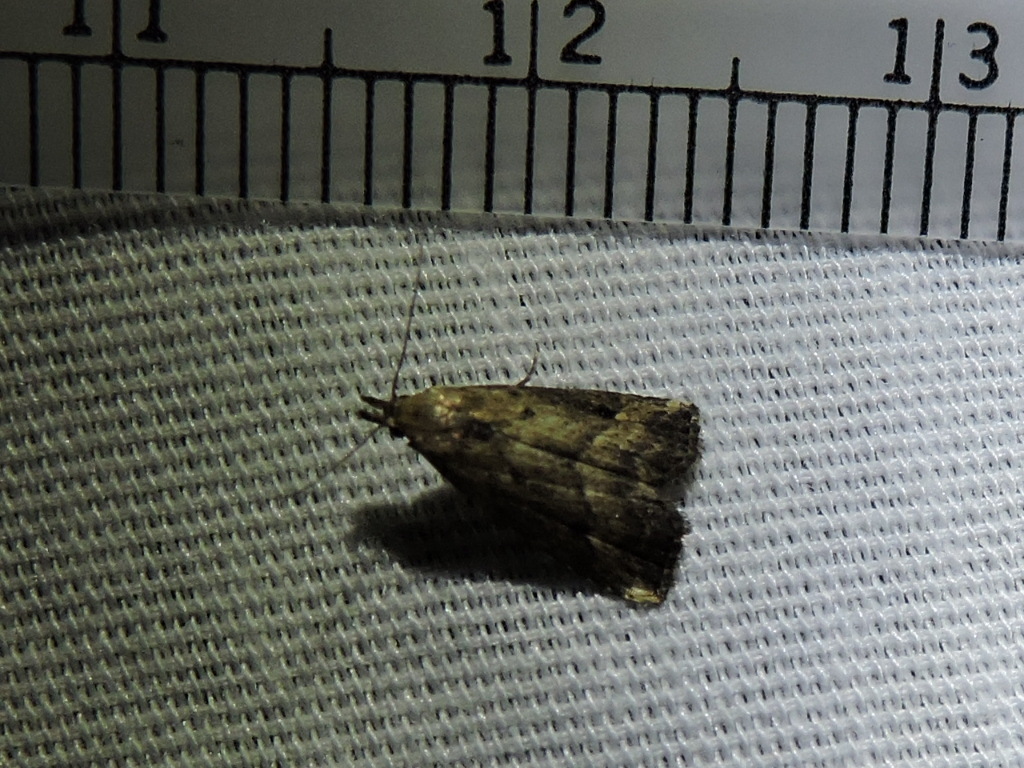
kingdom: Animalia
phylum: Arthropoda
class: Insecta
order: Lepidoptera
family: Erebidae
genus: Schrankia
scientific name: Schrankia
